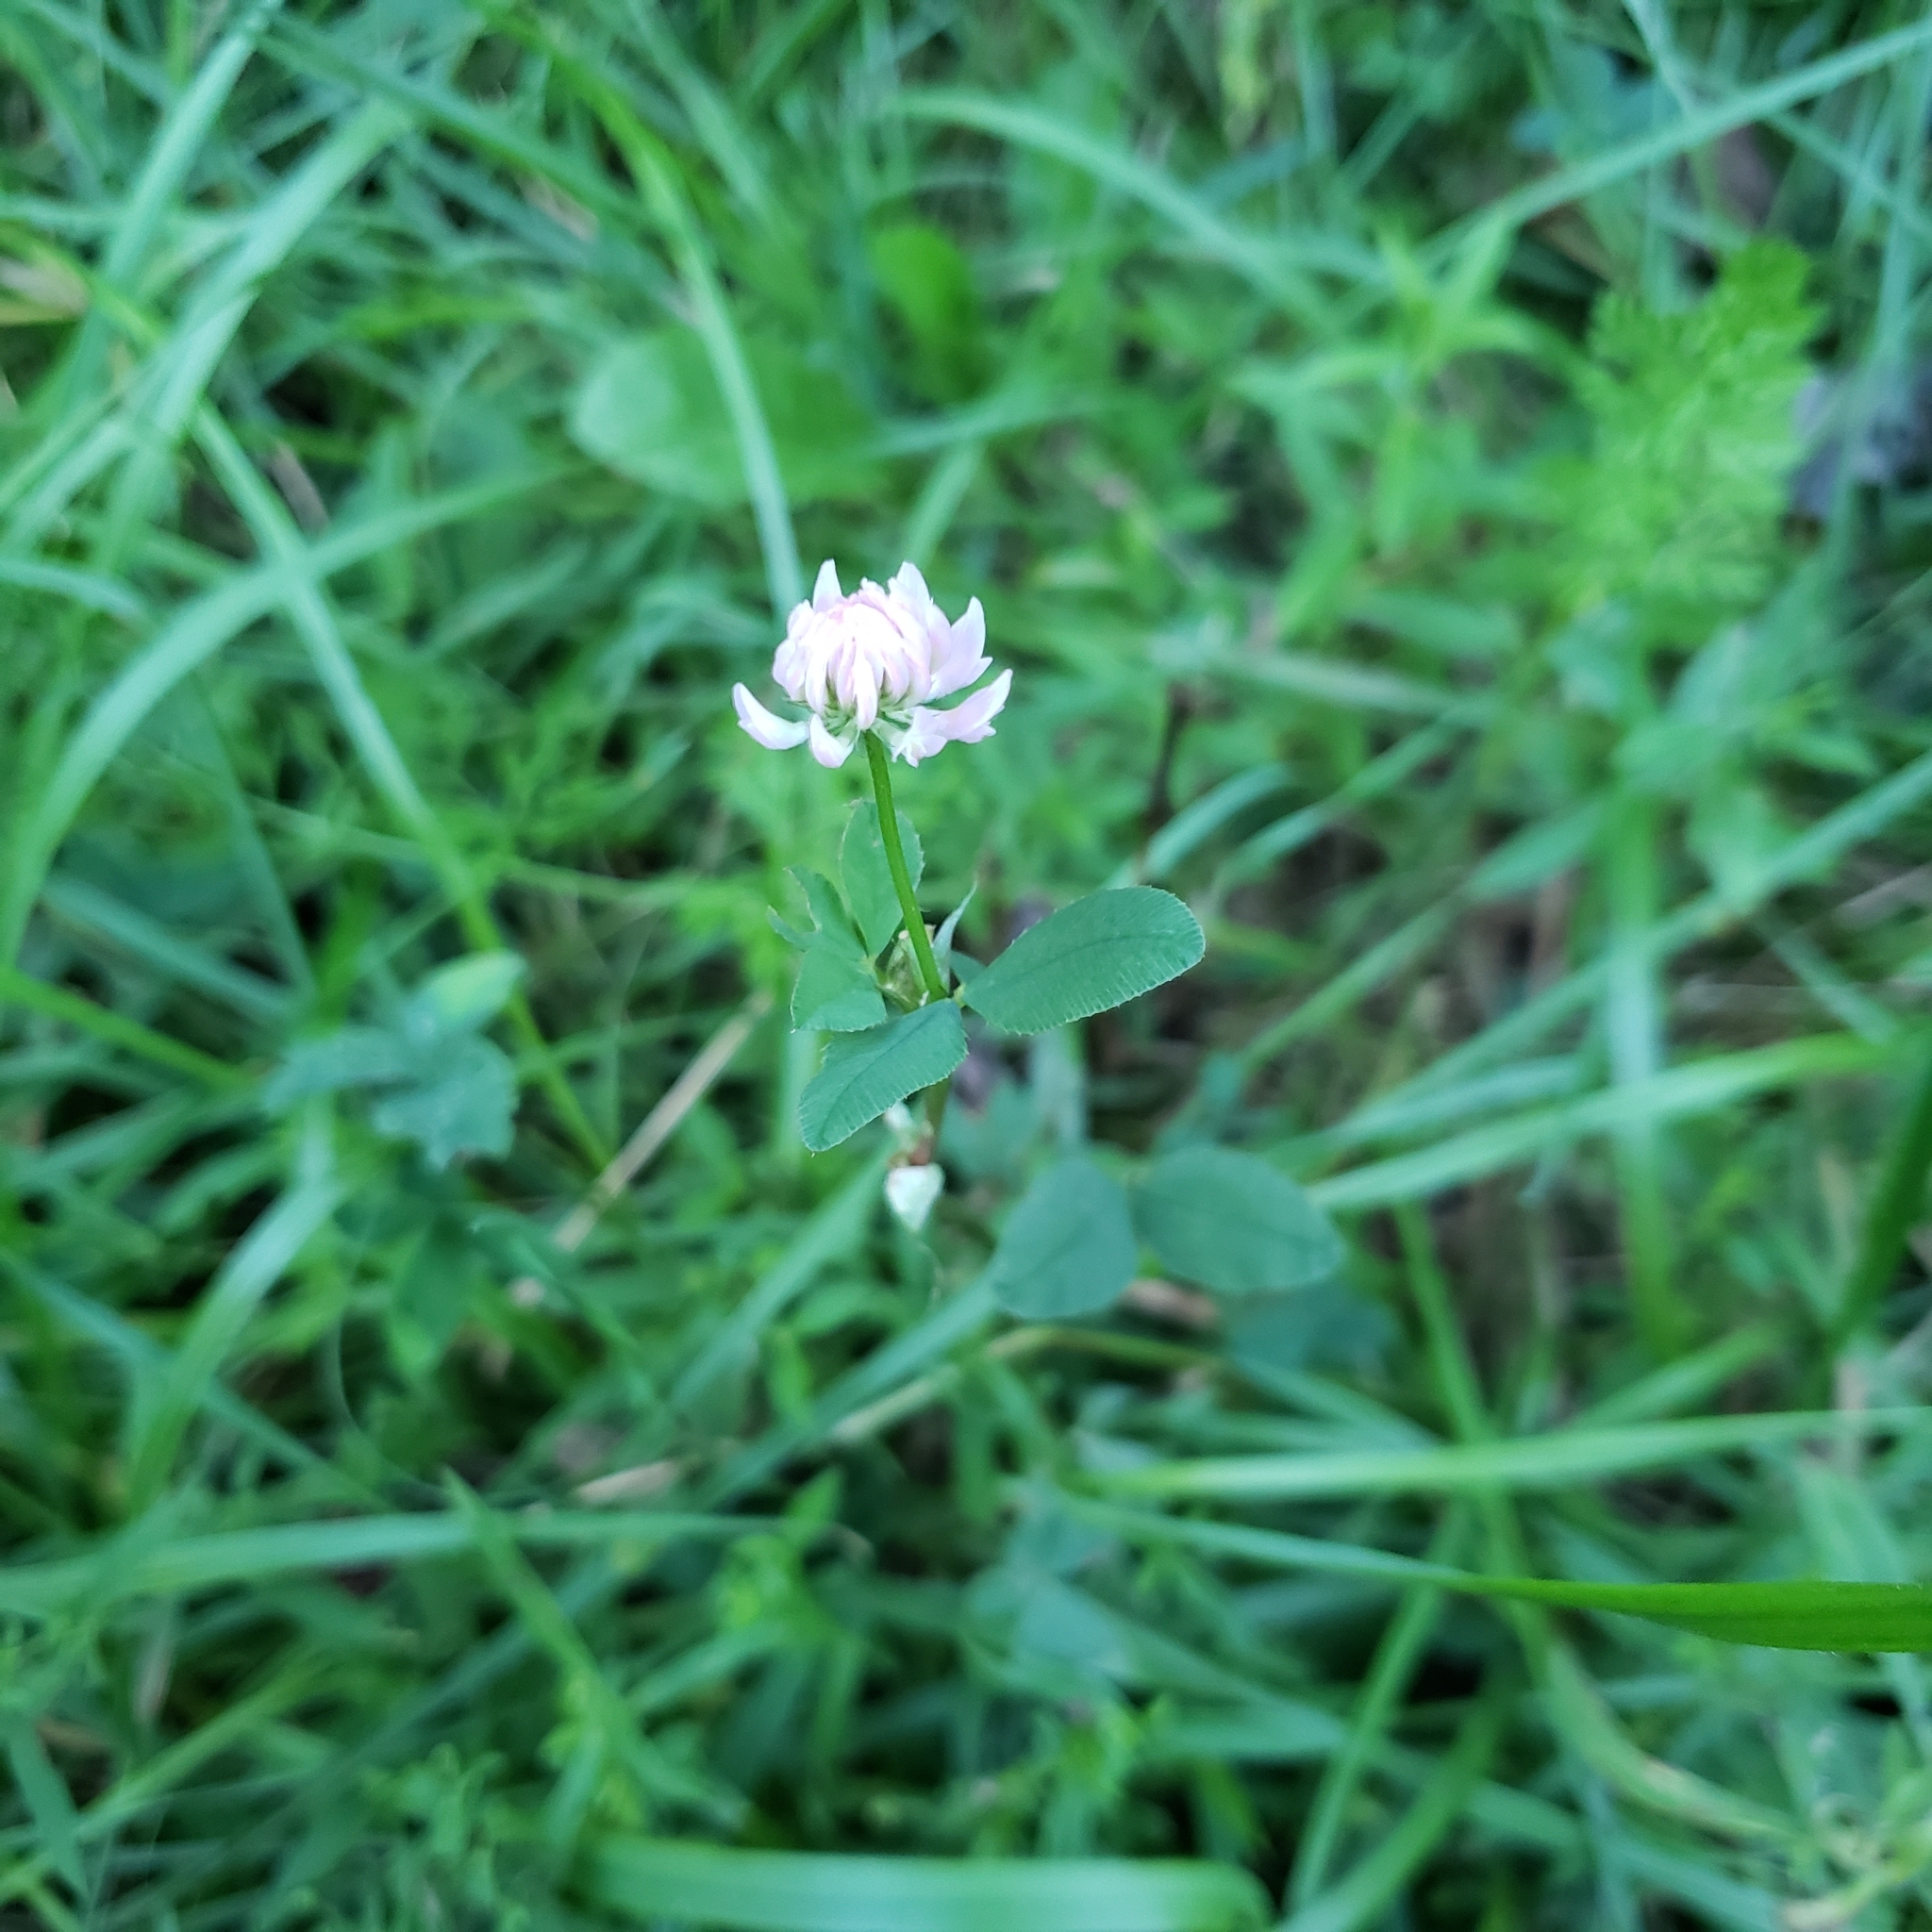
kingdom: Plantae
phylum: Tracheophyta
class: Magnoliopsida
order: Fabales
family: Fabaceae
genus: Trifolium
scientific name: Trifolium hybridum
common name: Alsike clover
